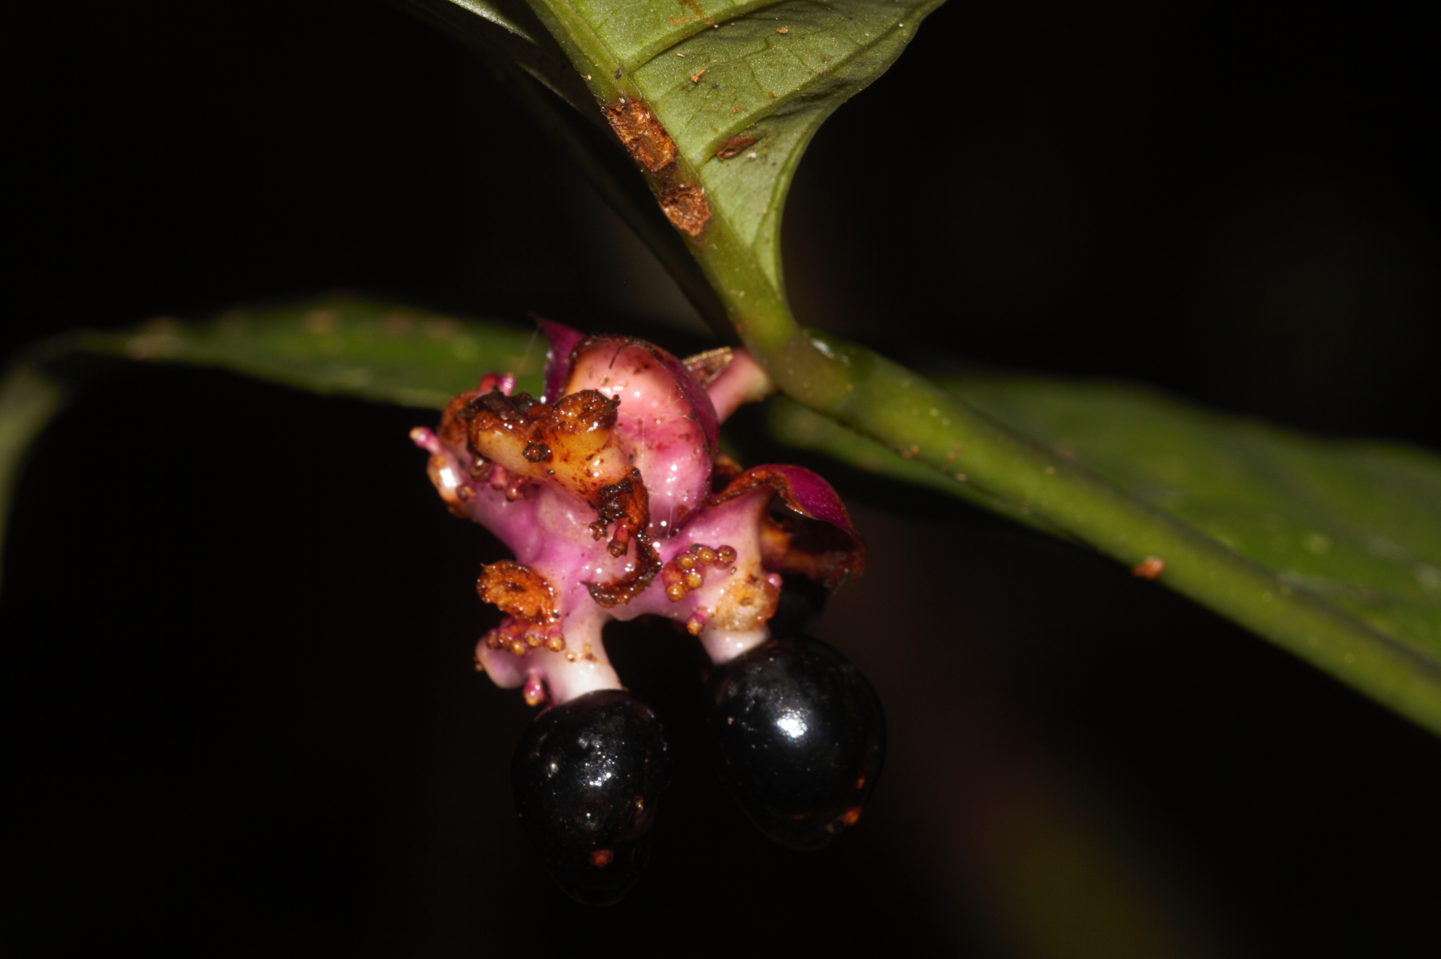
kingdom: Plantae
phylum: Tracheophyta
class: Magnoliopsida
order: Gentianales
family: Rubiaceae
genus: Palicourea
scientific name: Palicourea dichotoma
